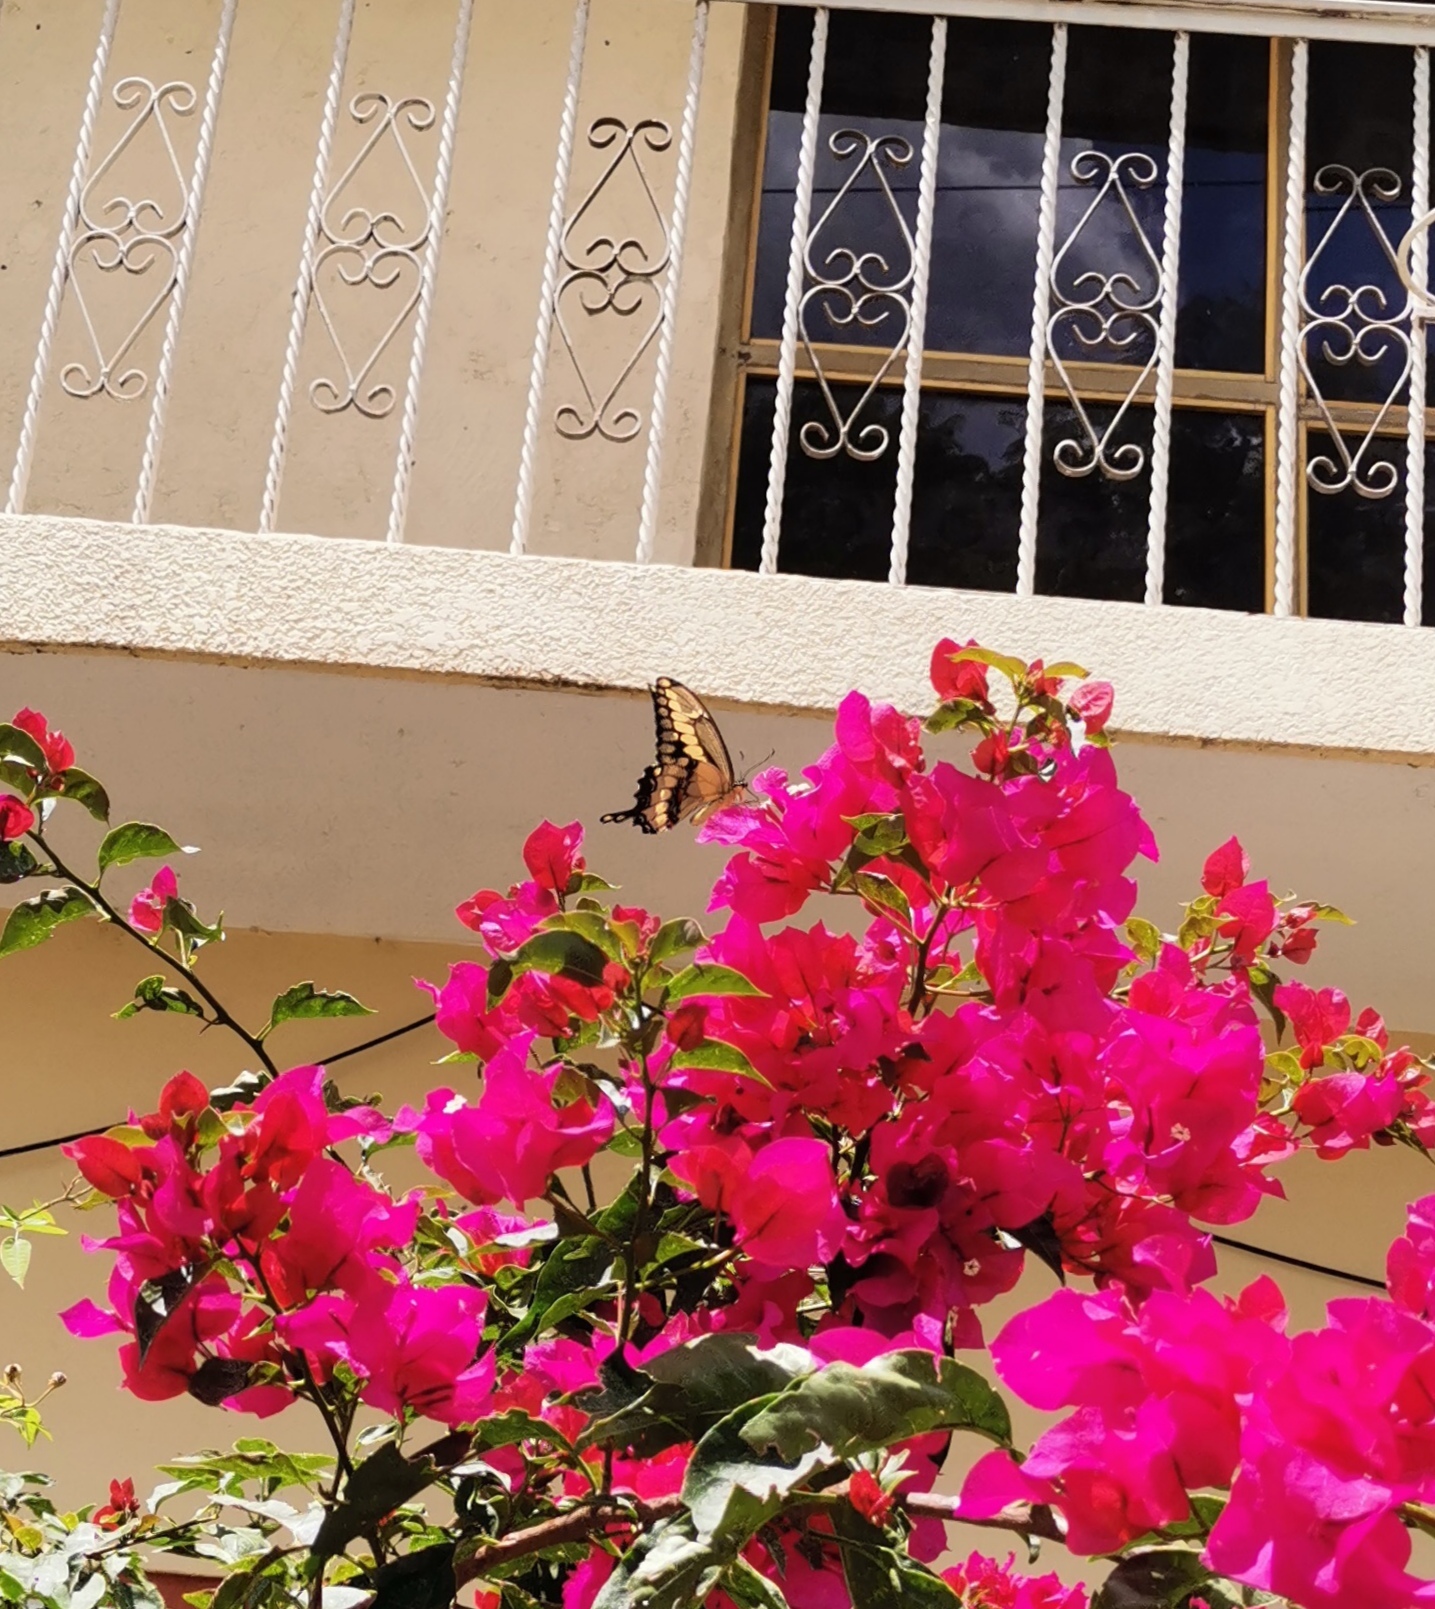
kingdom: Animalia
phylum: Arthropoda
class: Insecta
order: Lepidoptera
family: Papilionidae
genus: Papilio
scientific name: Papilio rumiko
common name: Western giant swallowtail
